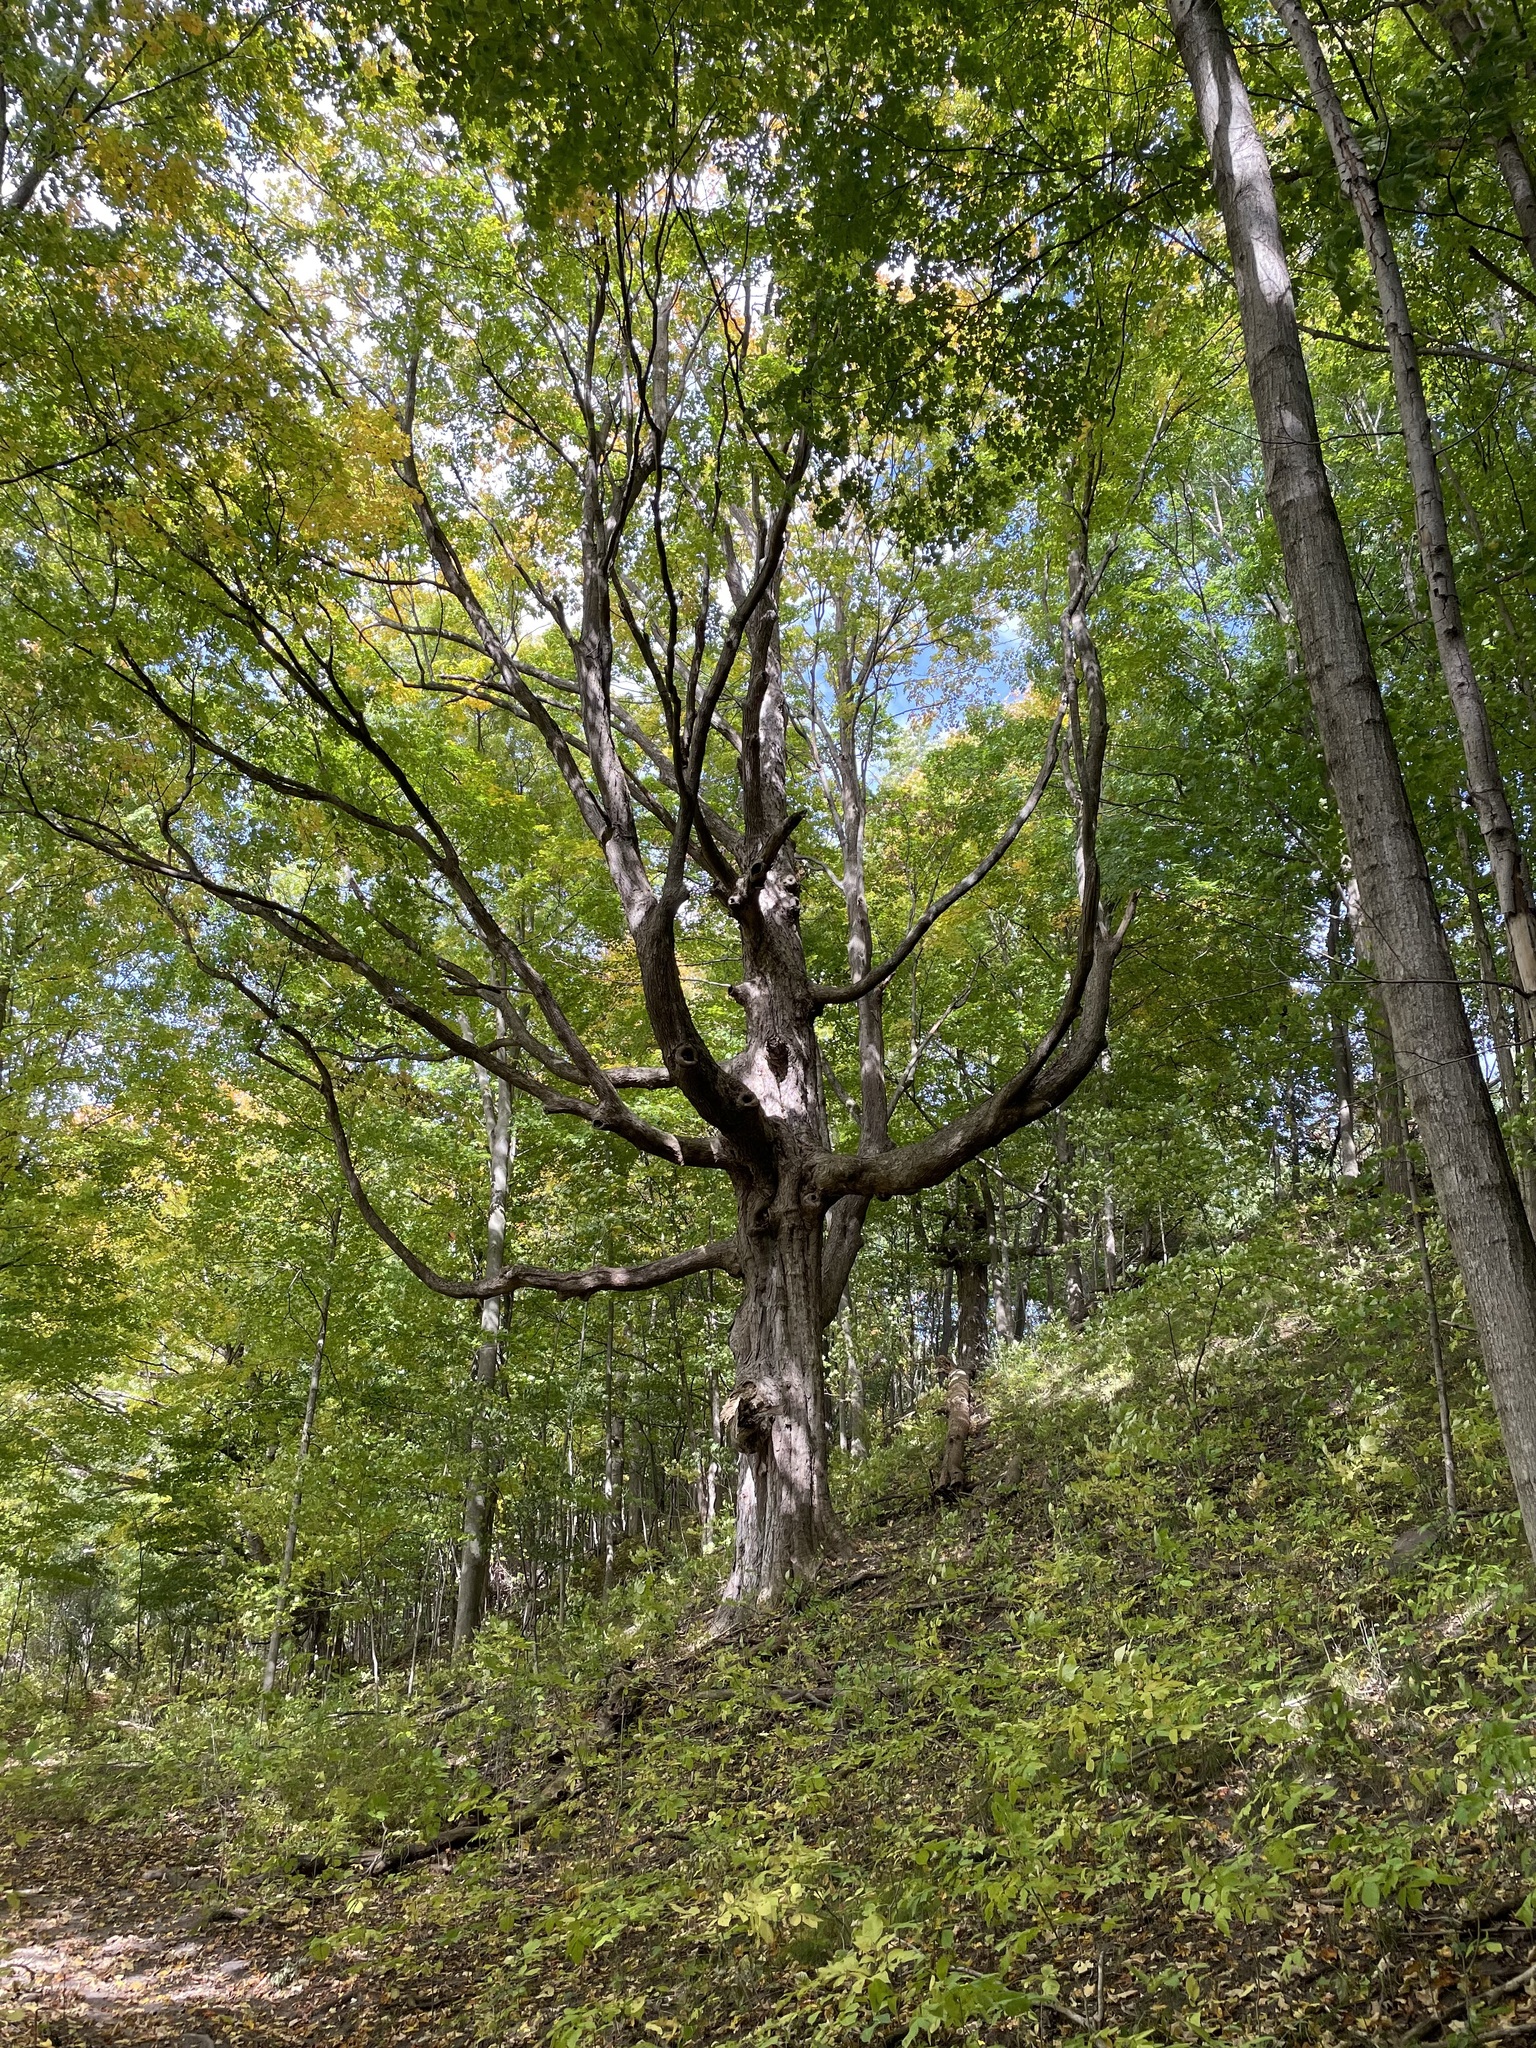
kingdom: Plantae
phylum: Tracheophyta
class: Magnoliopsida
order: Sapindales
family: Sapindaceae
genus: Acer
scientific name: Acer saccharum
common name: Sugar maple
